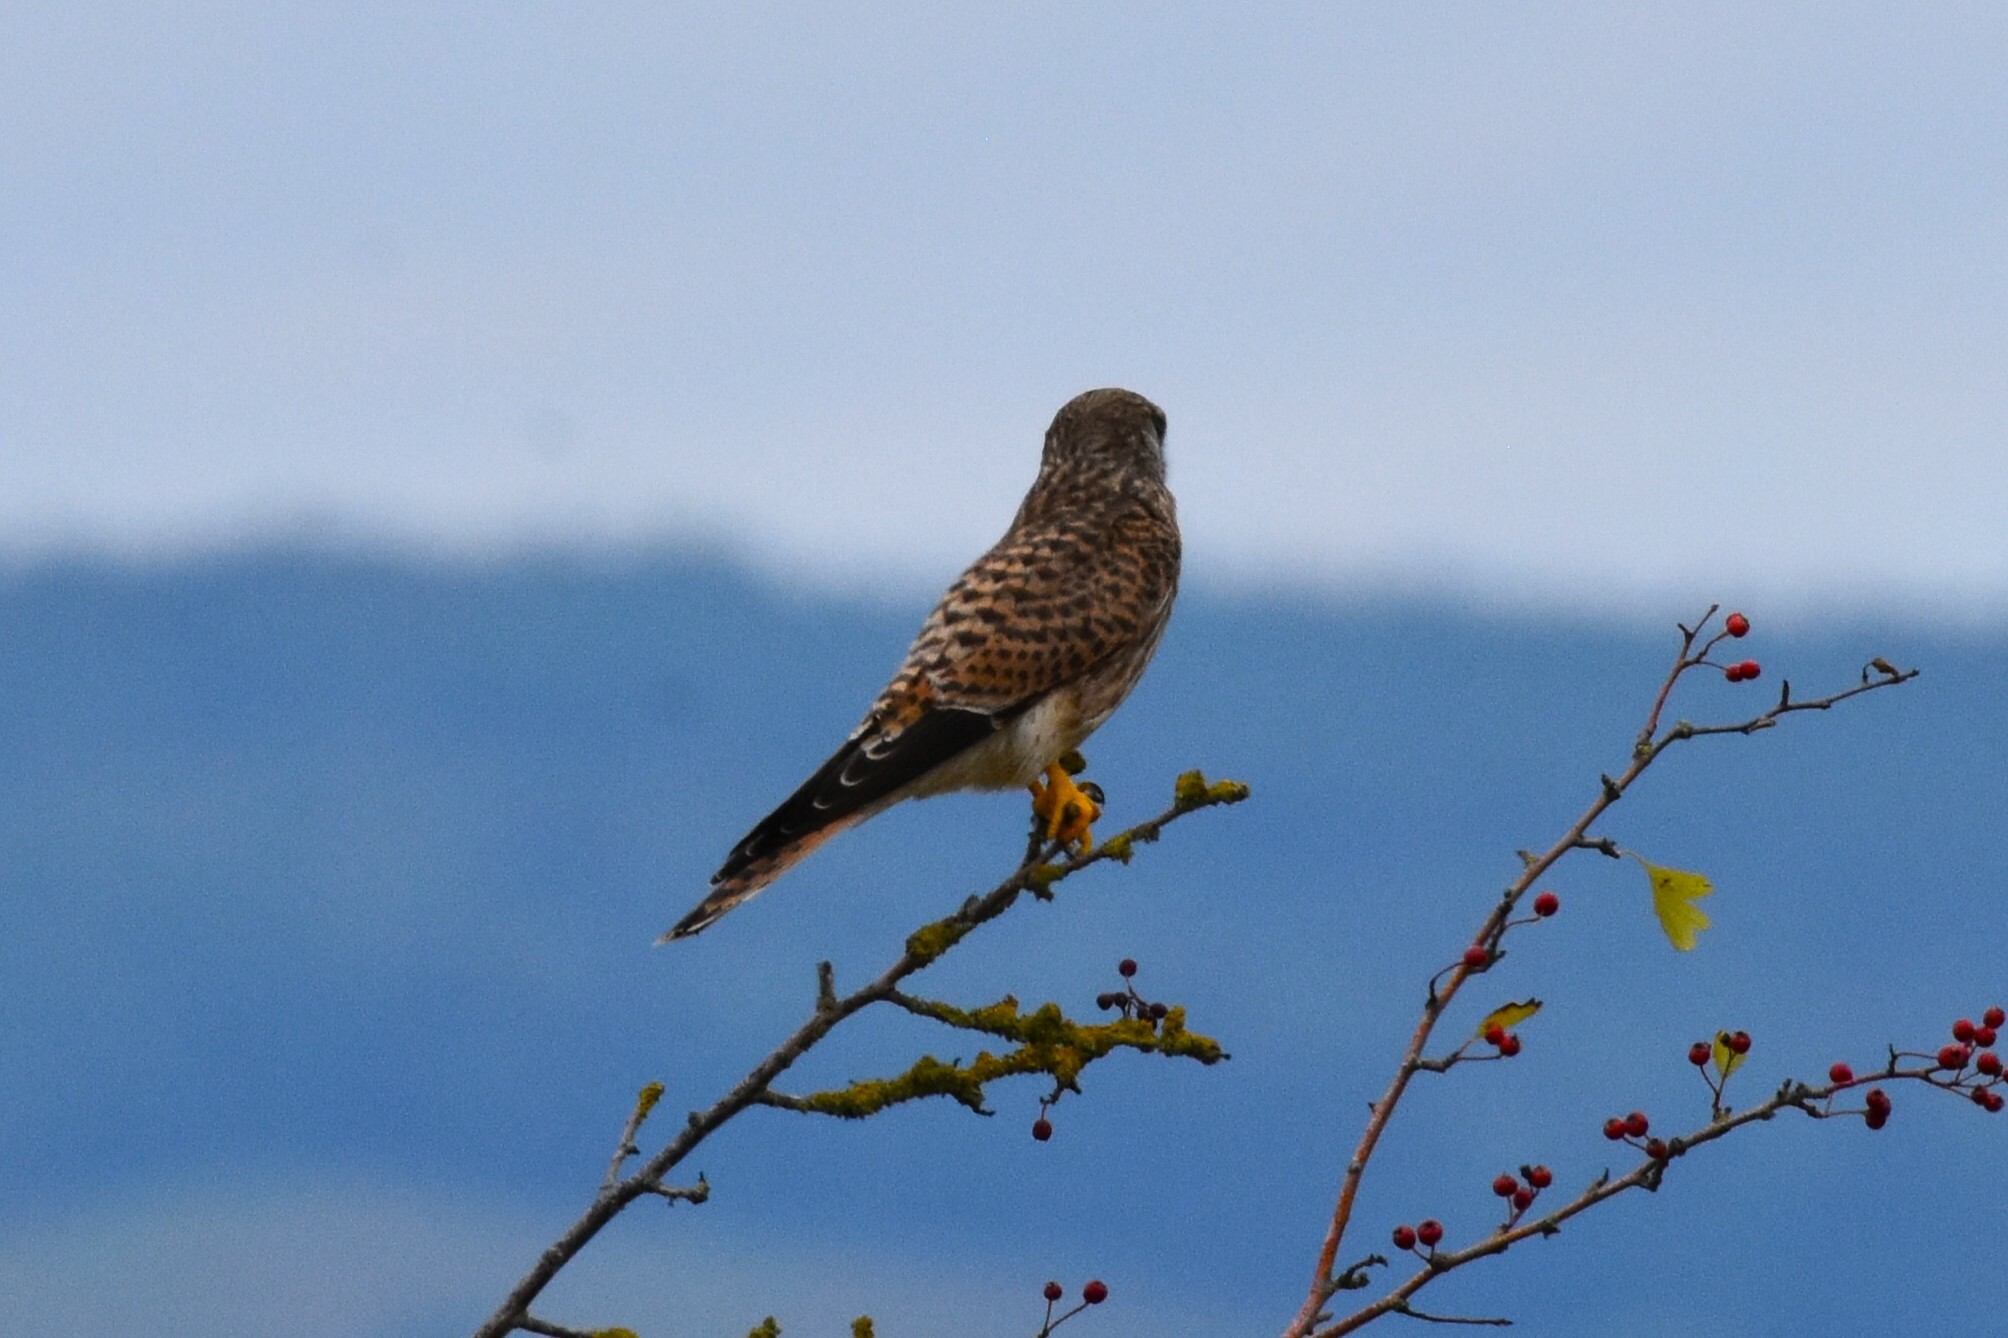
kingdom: Animalia
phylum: Chordata
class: Aves
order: Falconiformes
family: Falconidae
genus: Falco
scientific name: Falco tinnunculus
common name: Common kestrel
